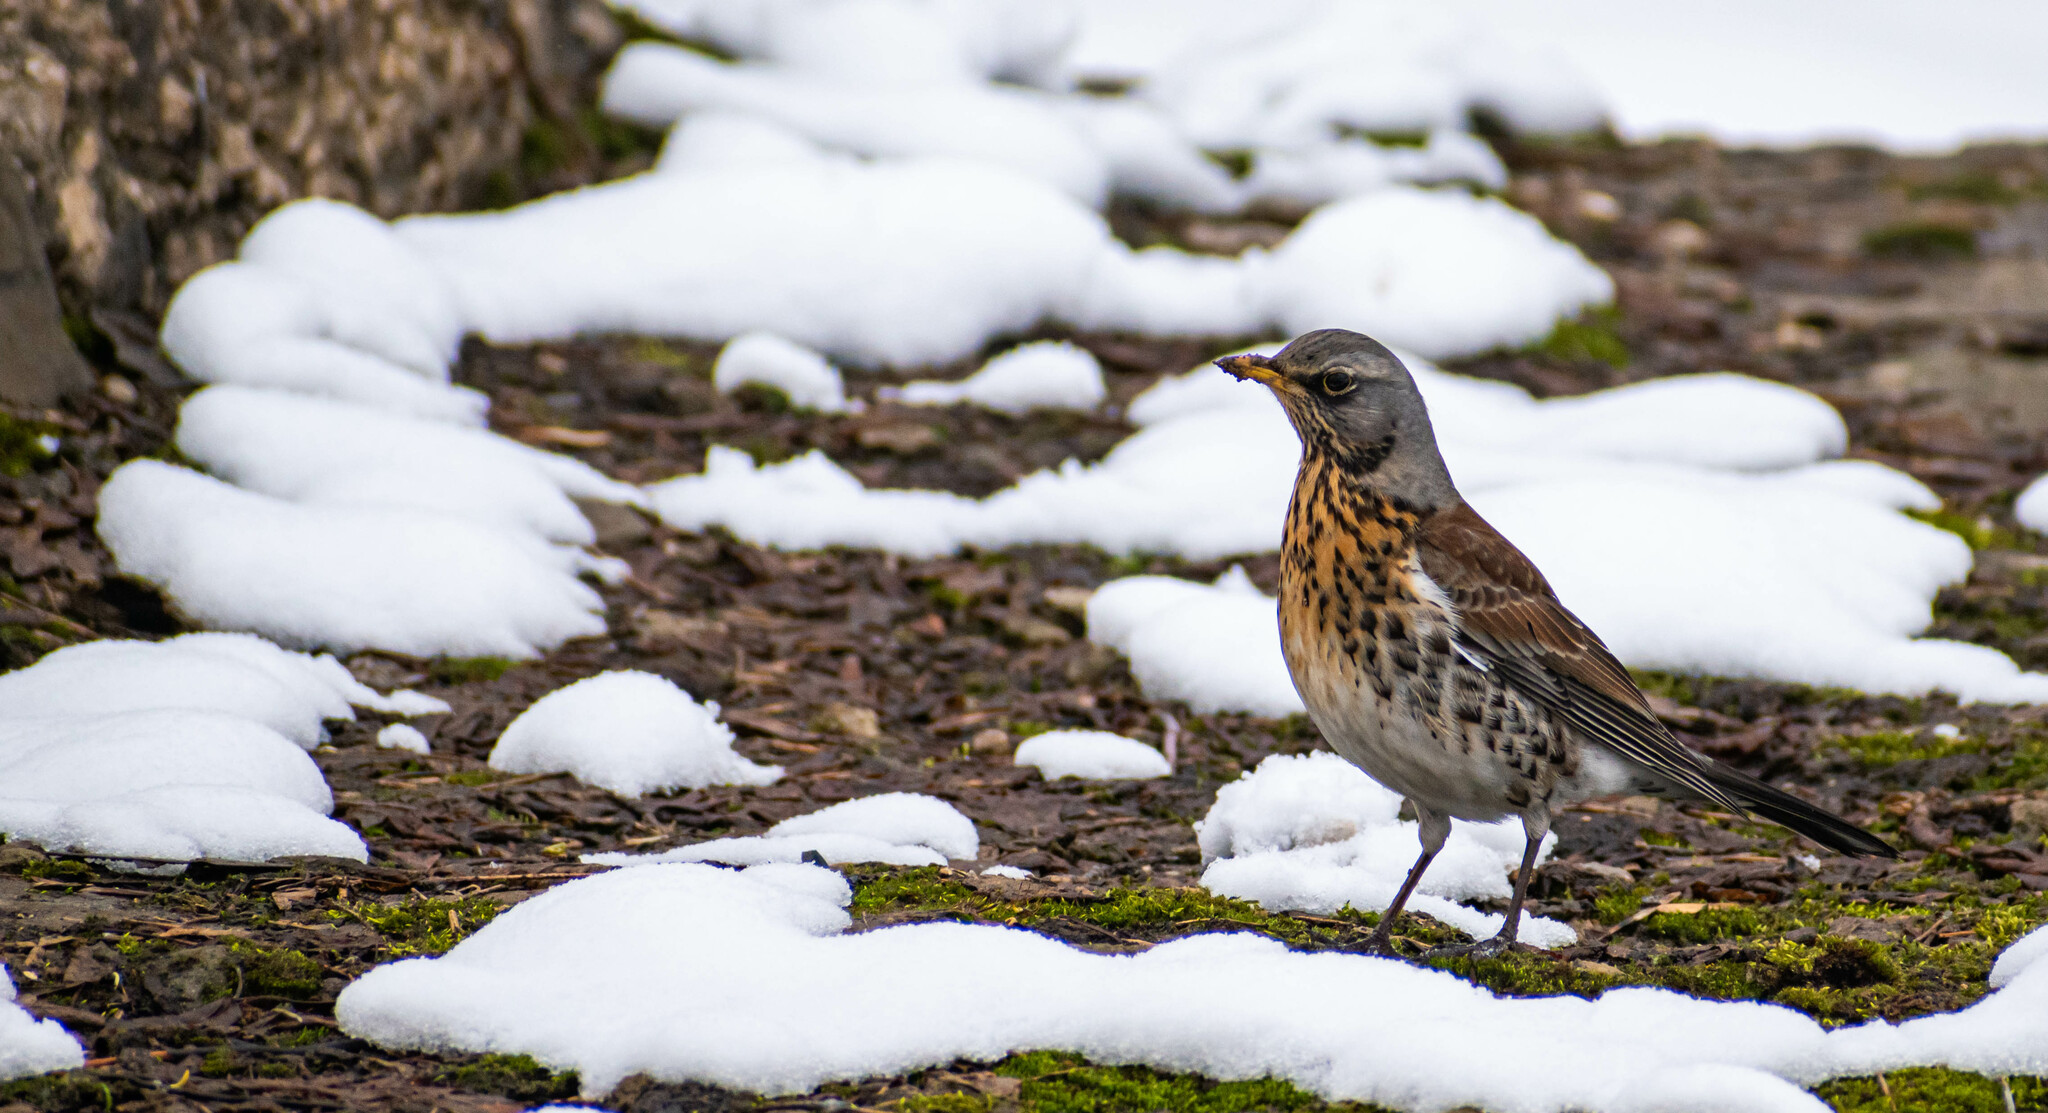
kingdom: Animalia
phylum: Chordata
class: Aves
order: Passeriformes
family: Turdidae
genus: Turdus
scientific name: Turdus pilaris
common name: Fieldfare
